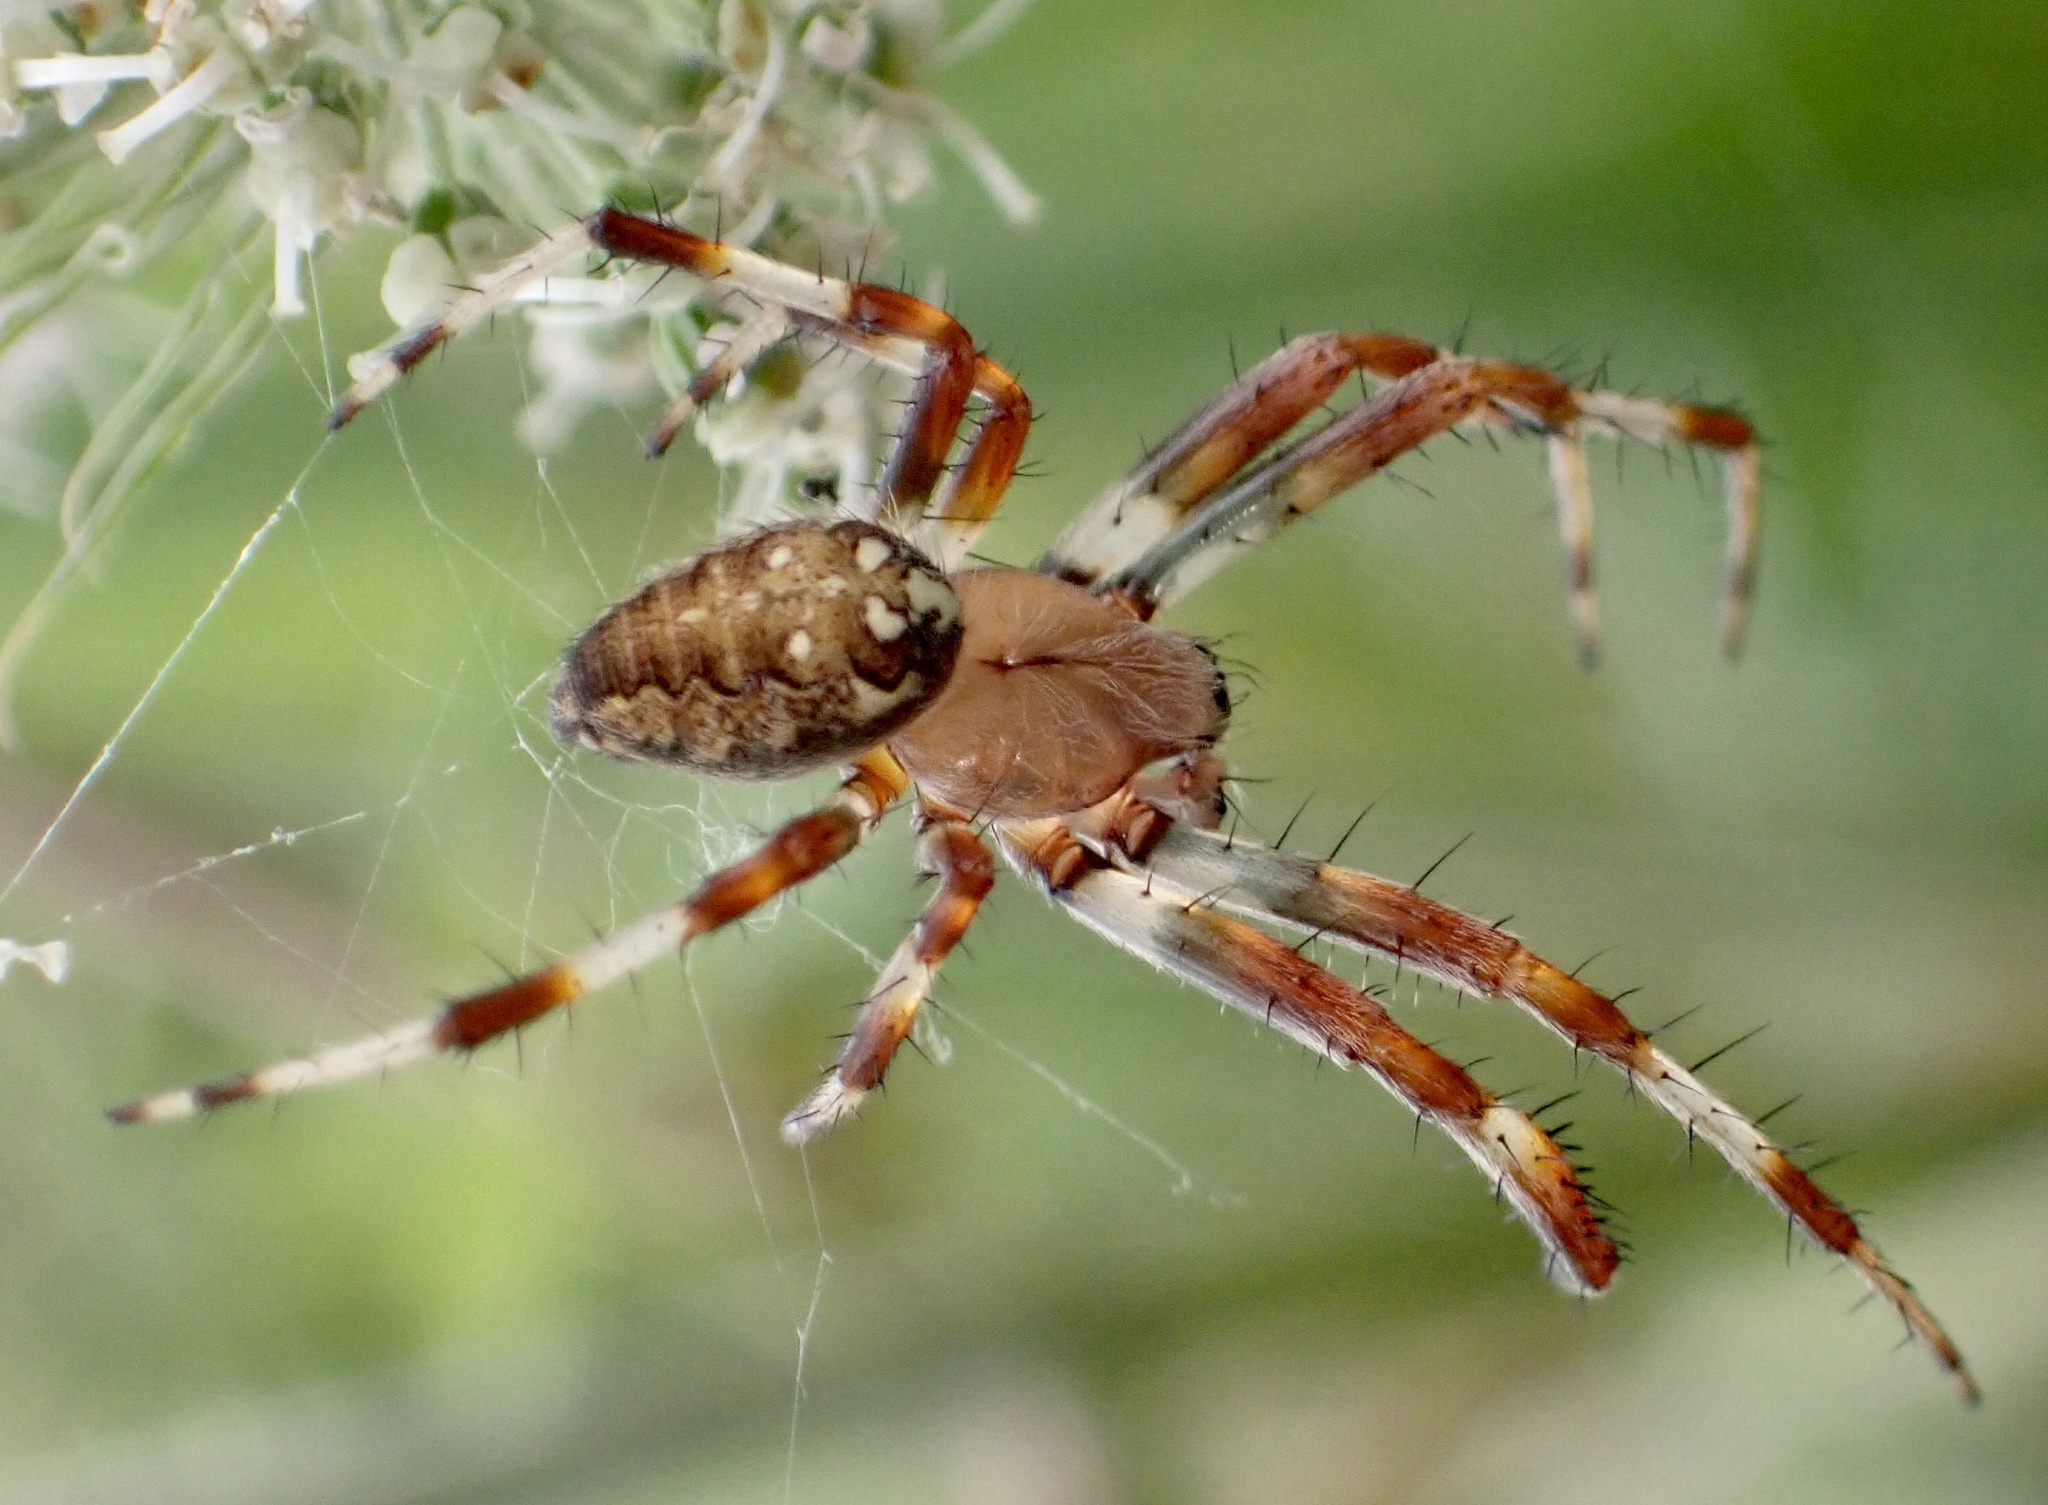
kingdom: Animalia
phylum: Arthropoda
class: Arachnida
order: Araneae
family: Araneidae
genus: Araneus
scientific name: Araneus marmoreus
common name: Marbled orbweaver
